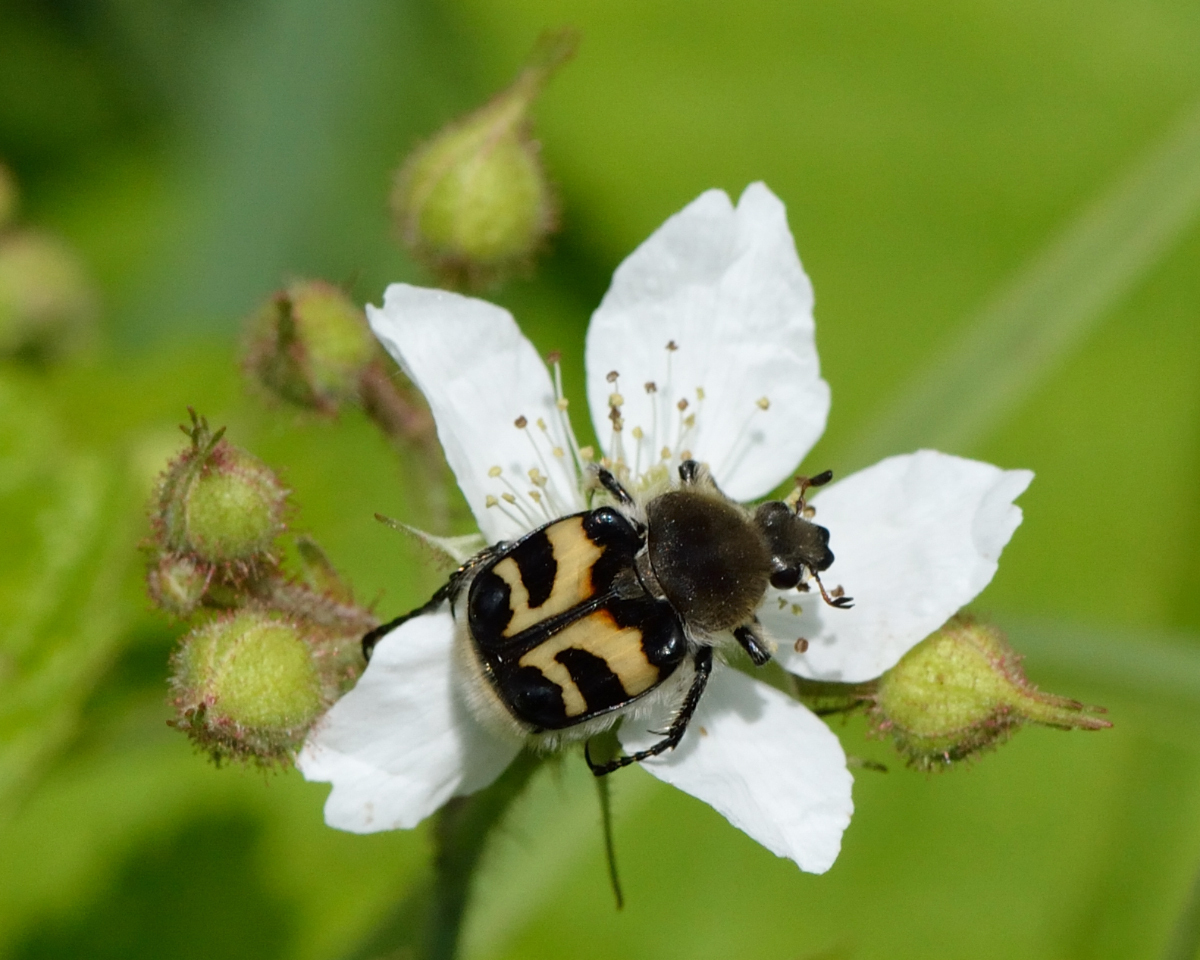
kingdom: Animalia
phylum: Arthropoda
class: Insecta
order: Coleoptera
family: Scarabaeidae
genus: Trichius
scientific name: Trichius fasciatus
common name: Bee beetle
